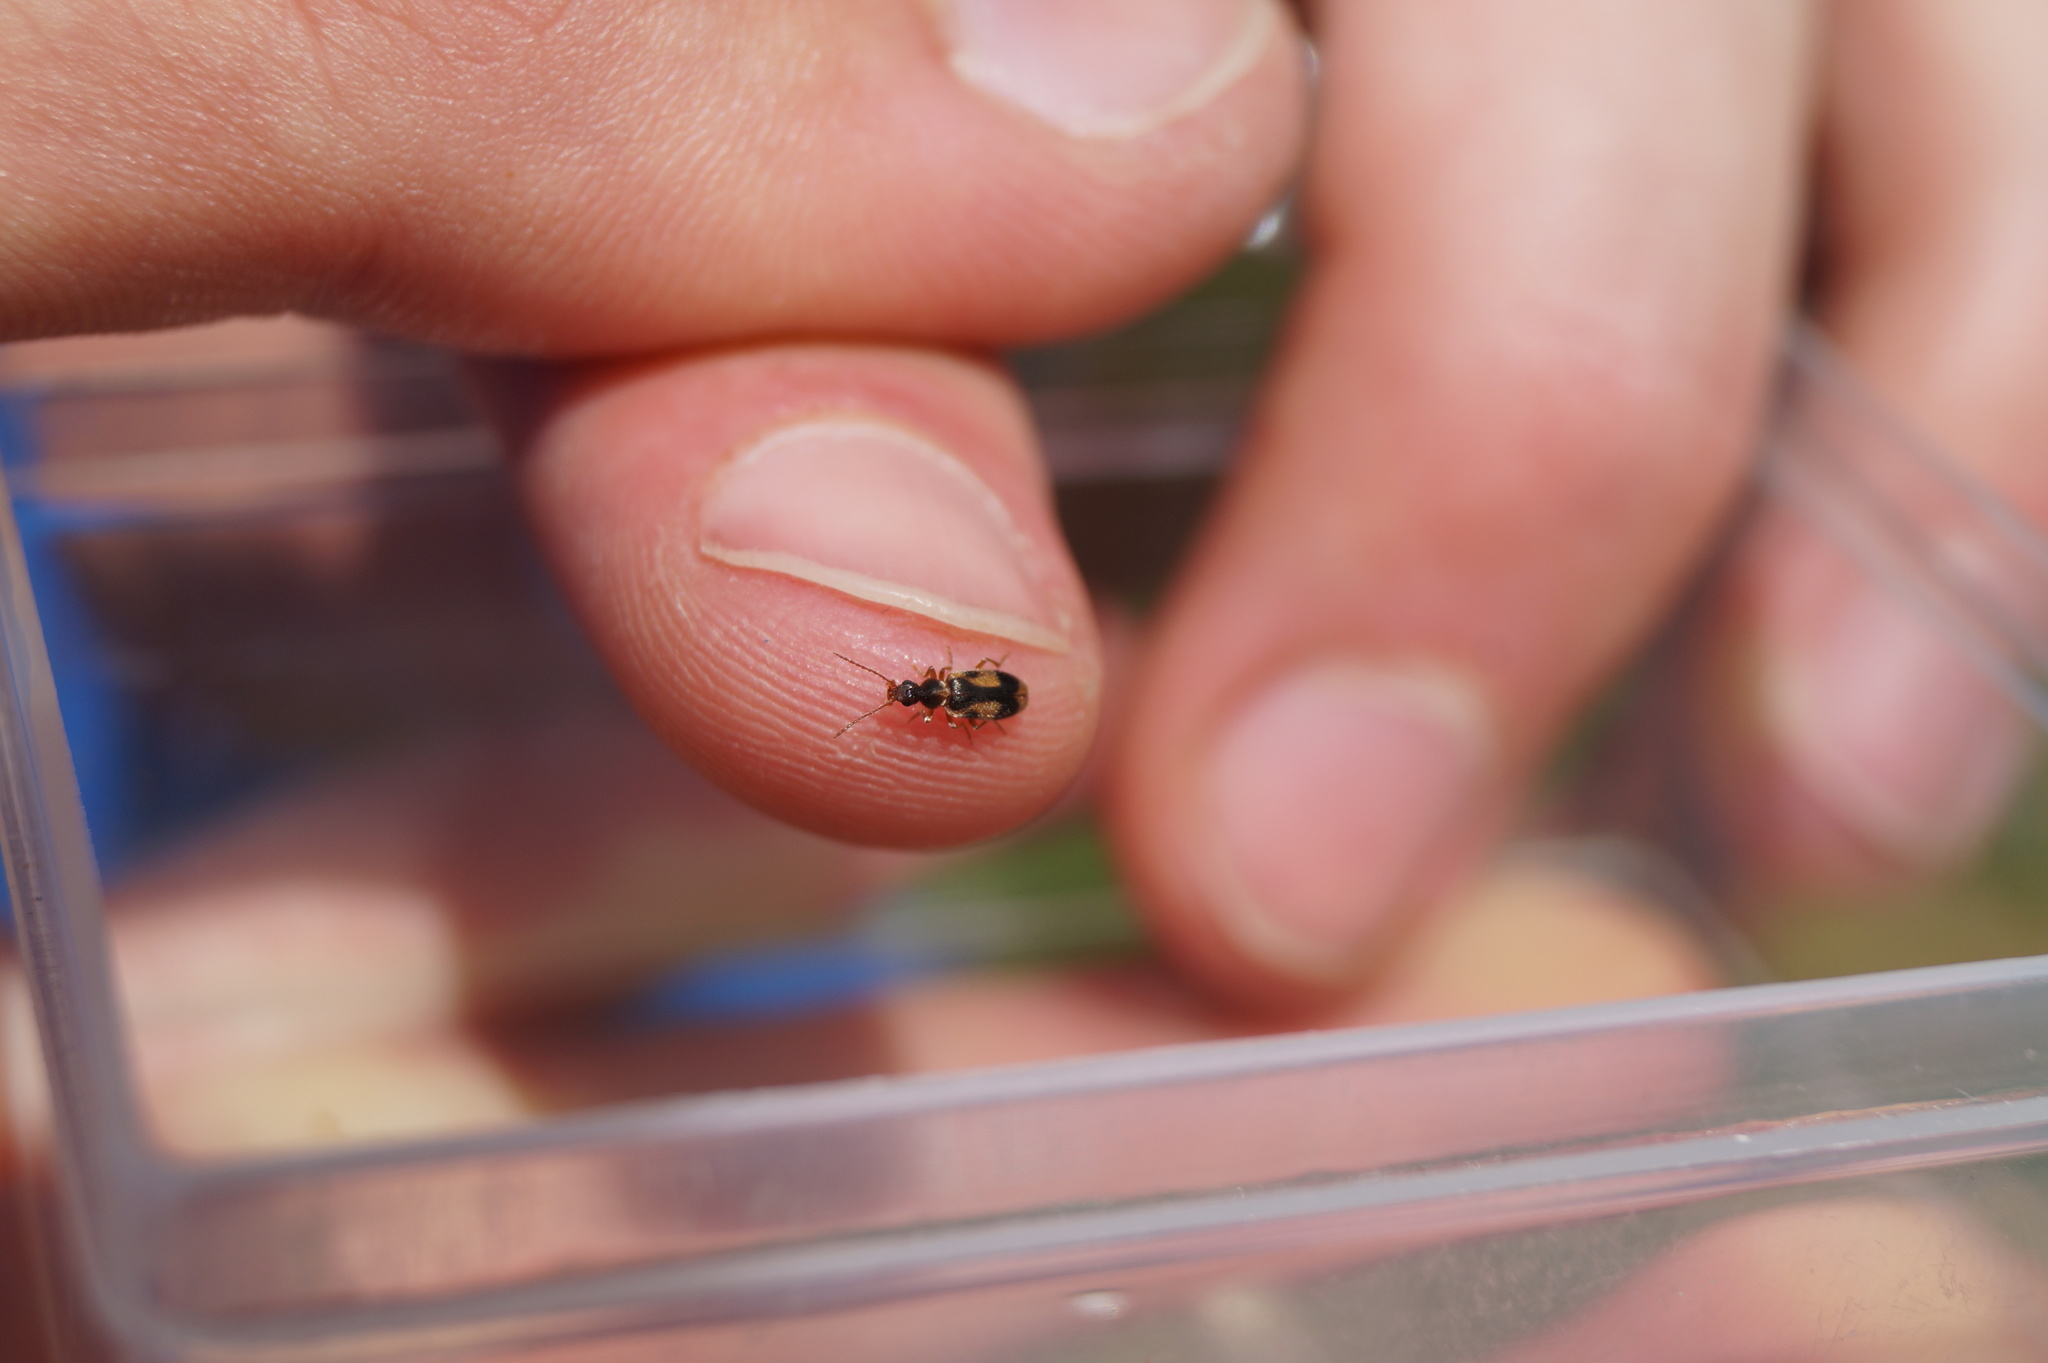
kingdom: Animalia
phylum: Arthropoda
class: Insecta
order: Coleoptera
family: Anthicidae
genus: Notoxus
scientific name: Notoxus monoceros
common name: Monoceros beetle
